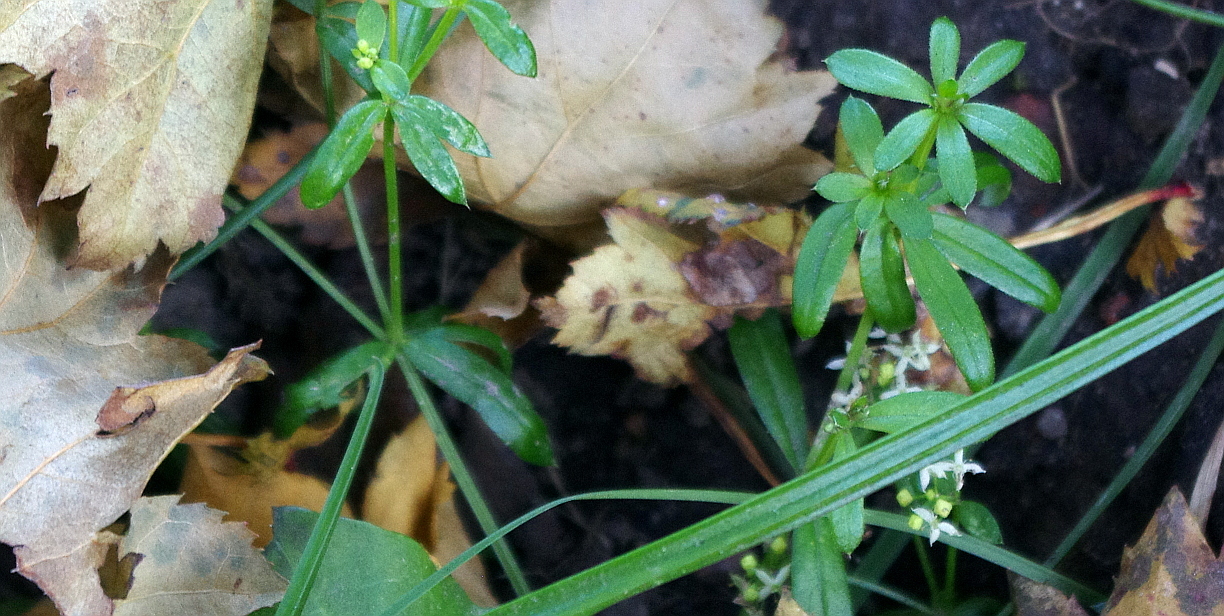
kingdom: Plantae
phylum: Tracheophyta
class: Magnoliopsida
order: Gentianales
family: Rubiaceae
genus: Galium
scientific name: Galium mollugo
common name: Hedge bedstraw
